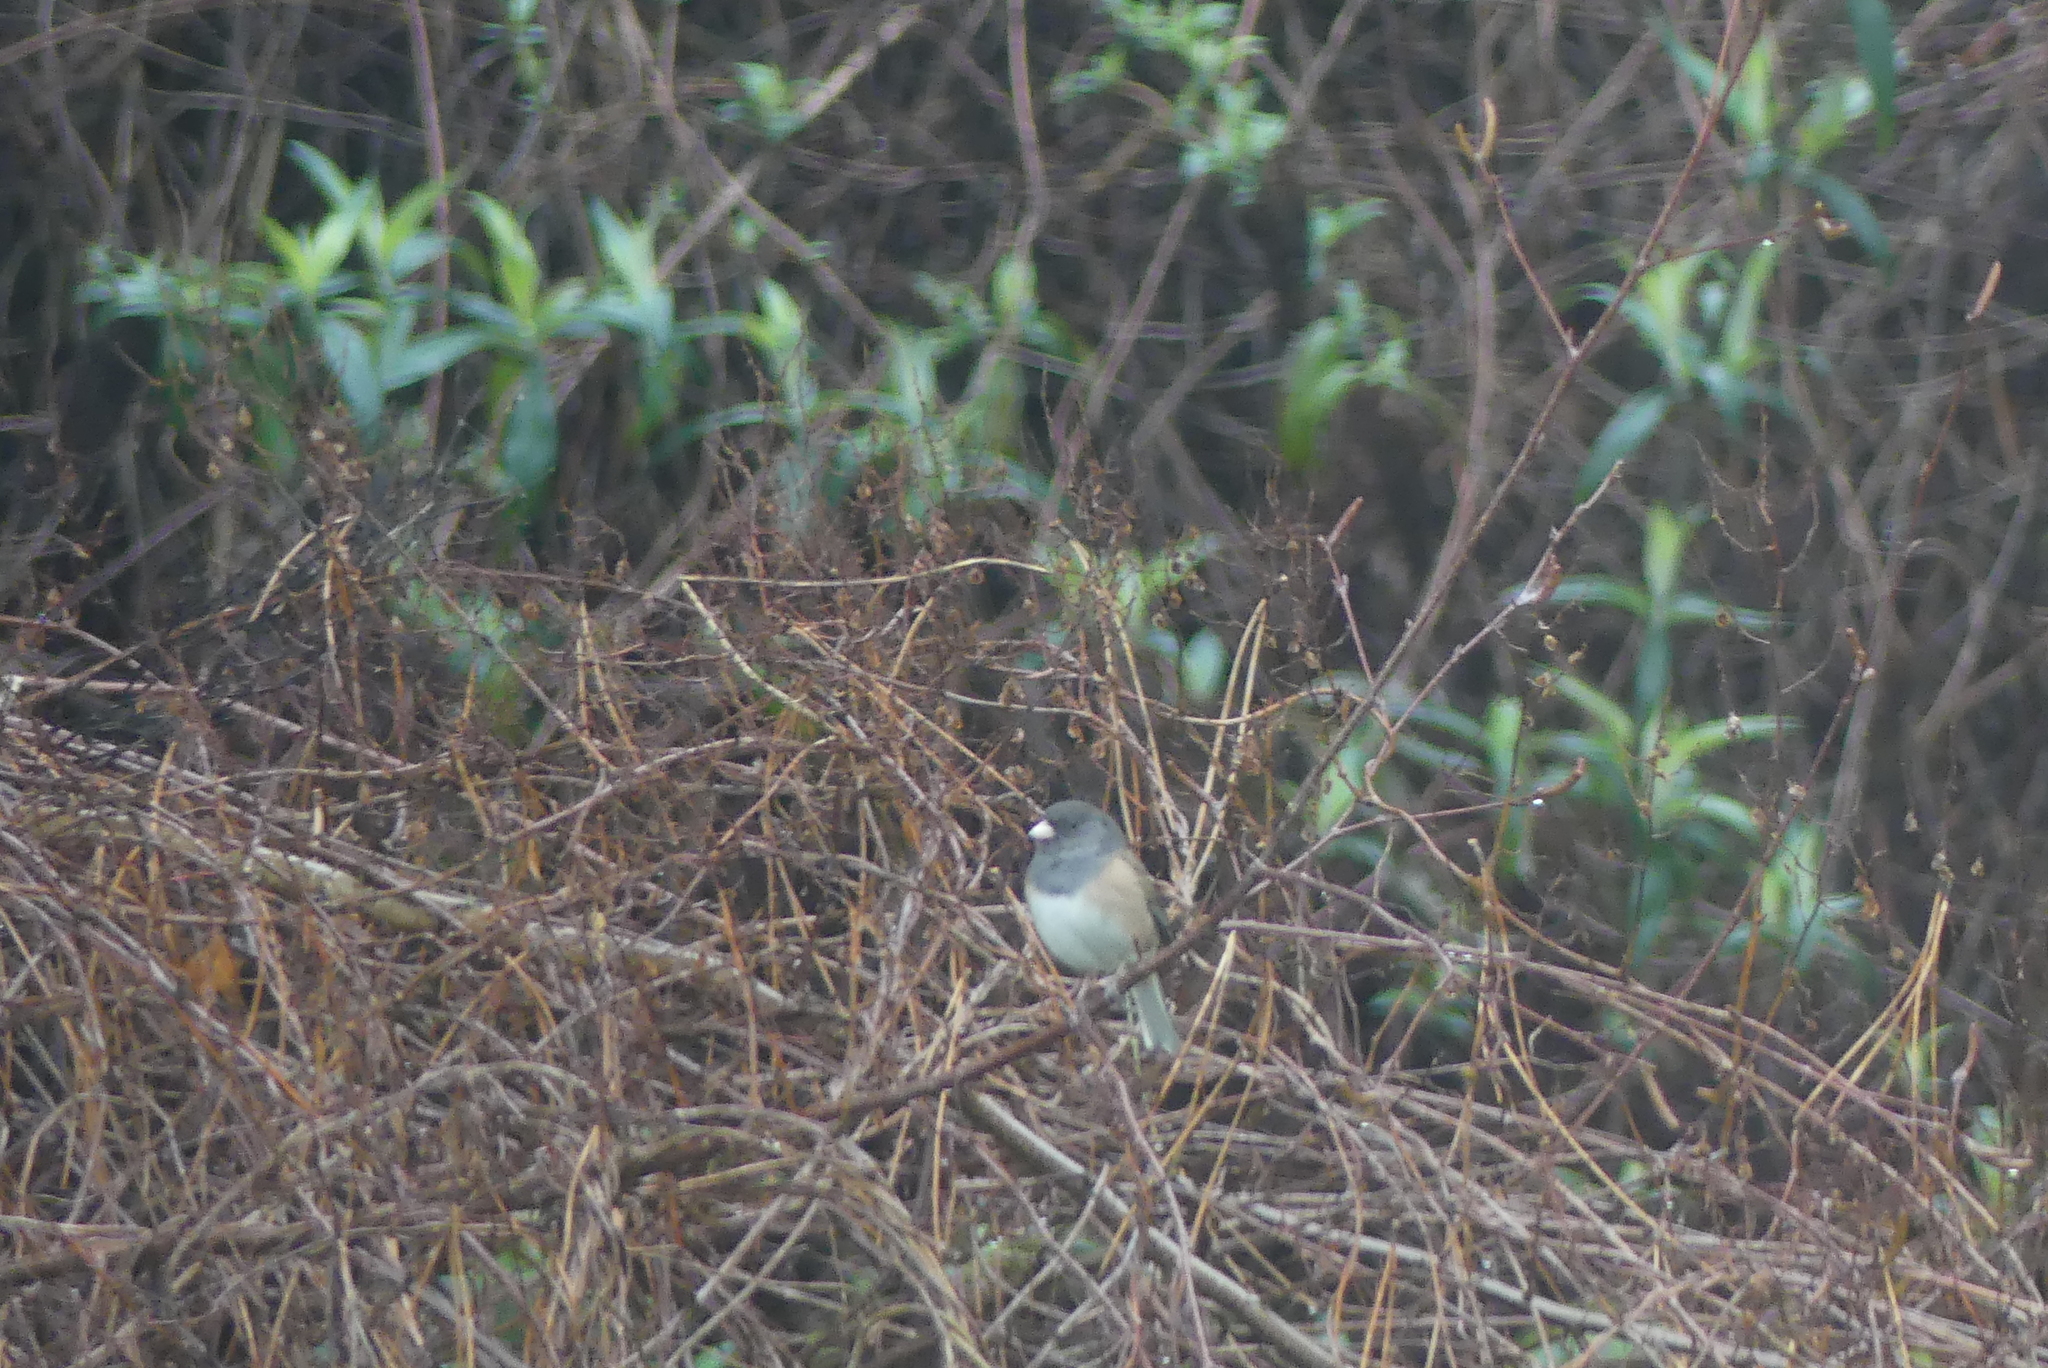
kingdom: Animalia
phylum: Chordata
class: Aves
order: Passeriformes
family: Passerellidae
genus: Junco
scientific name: Junco hyemalis
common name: Dark-eyed junco
